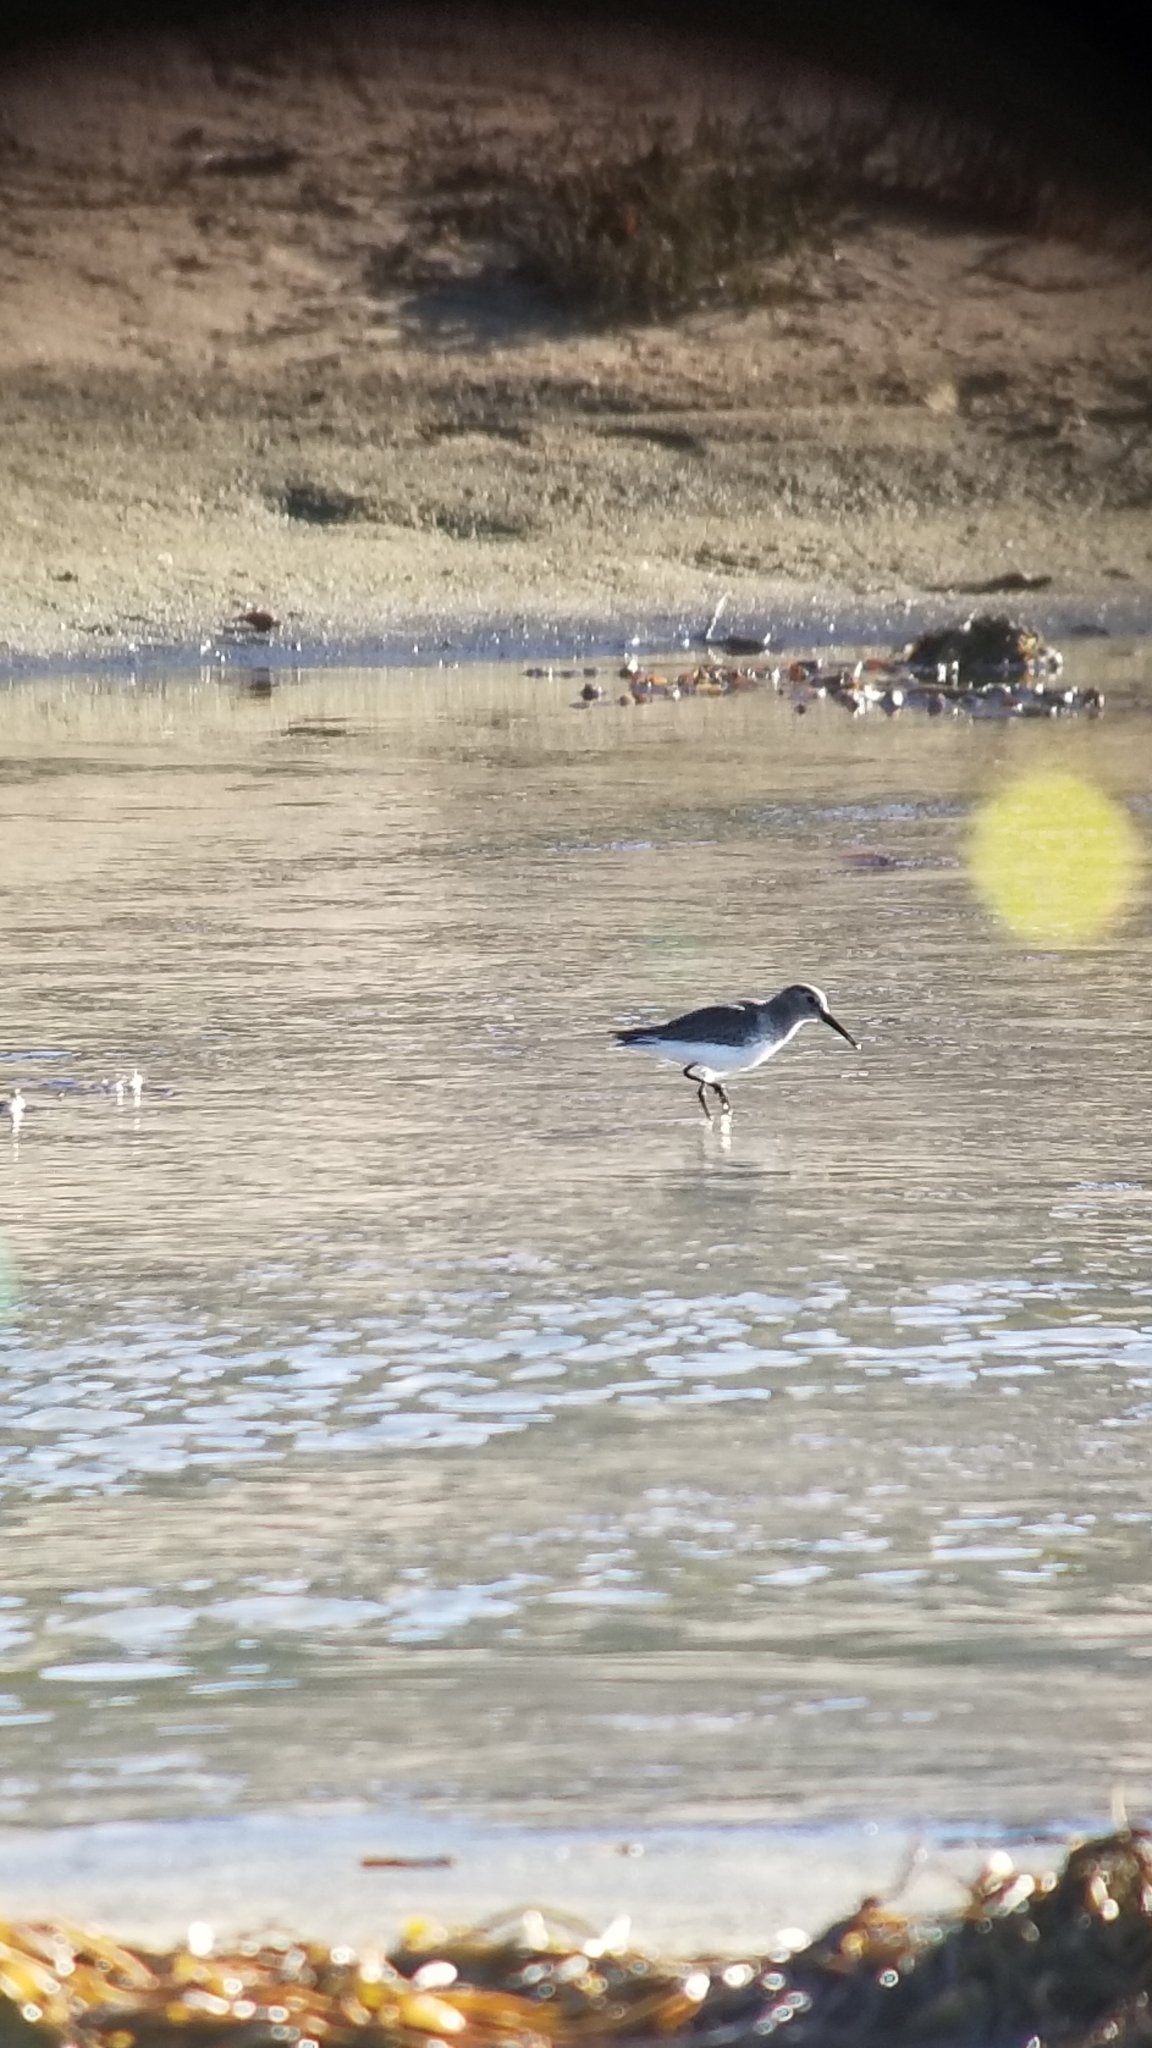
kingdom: Animalia
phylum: Chordata
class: Aves
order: Charadriiformes
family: Scolopacidae
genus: Calidris
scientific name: Calidris alpina
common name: Dunlin
